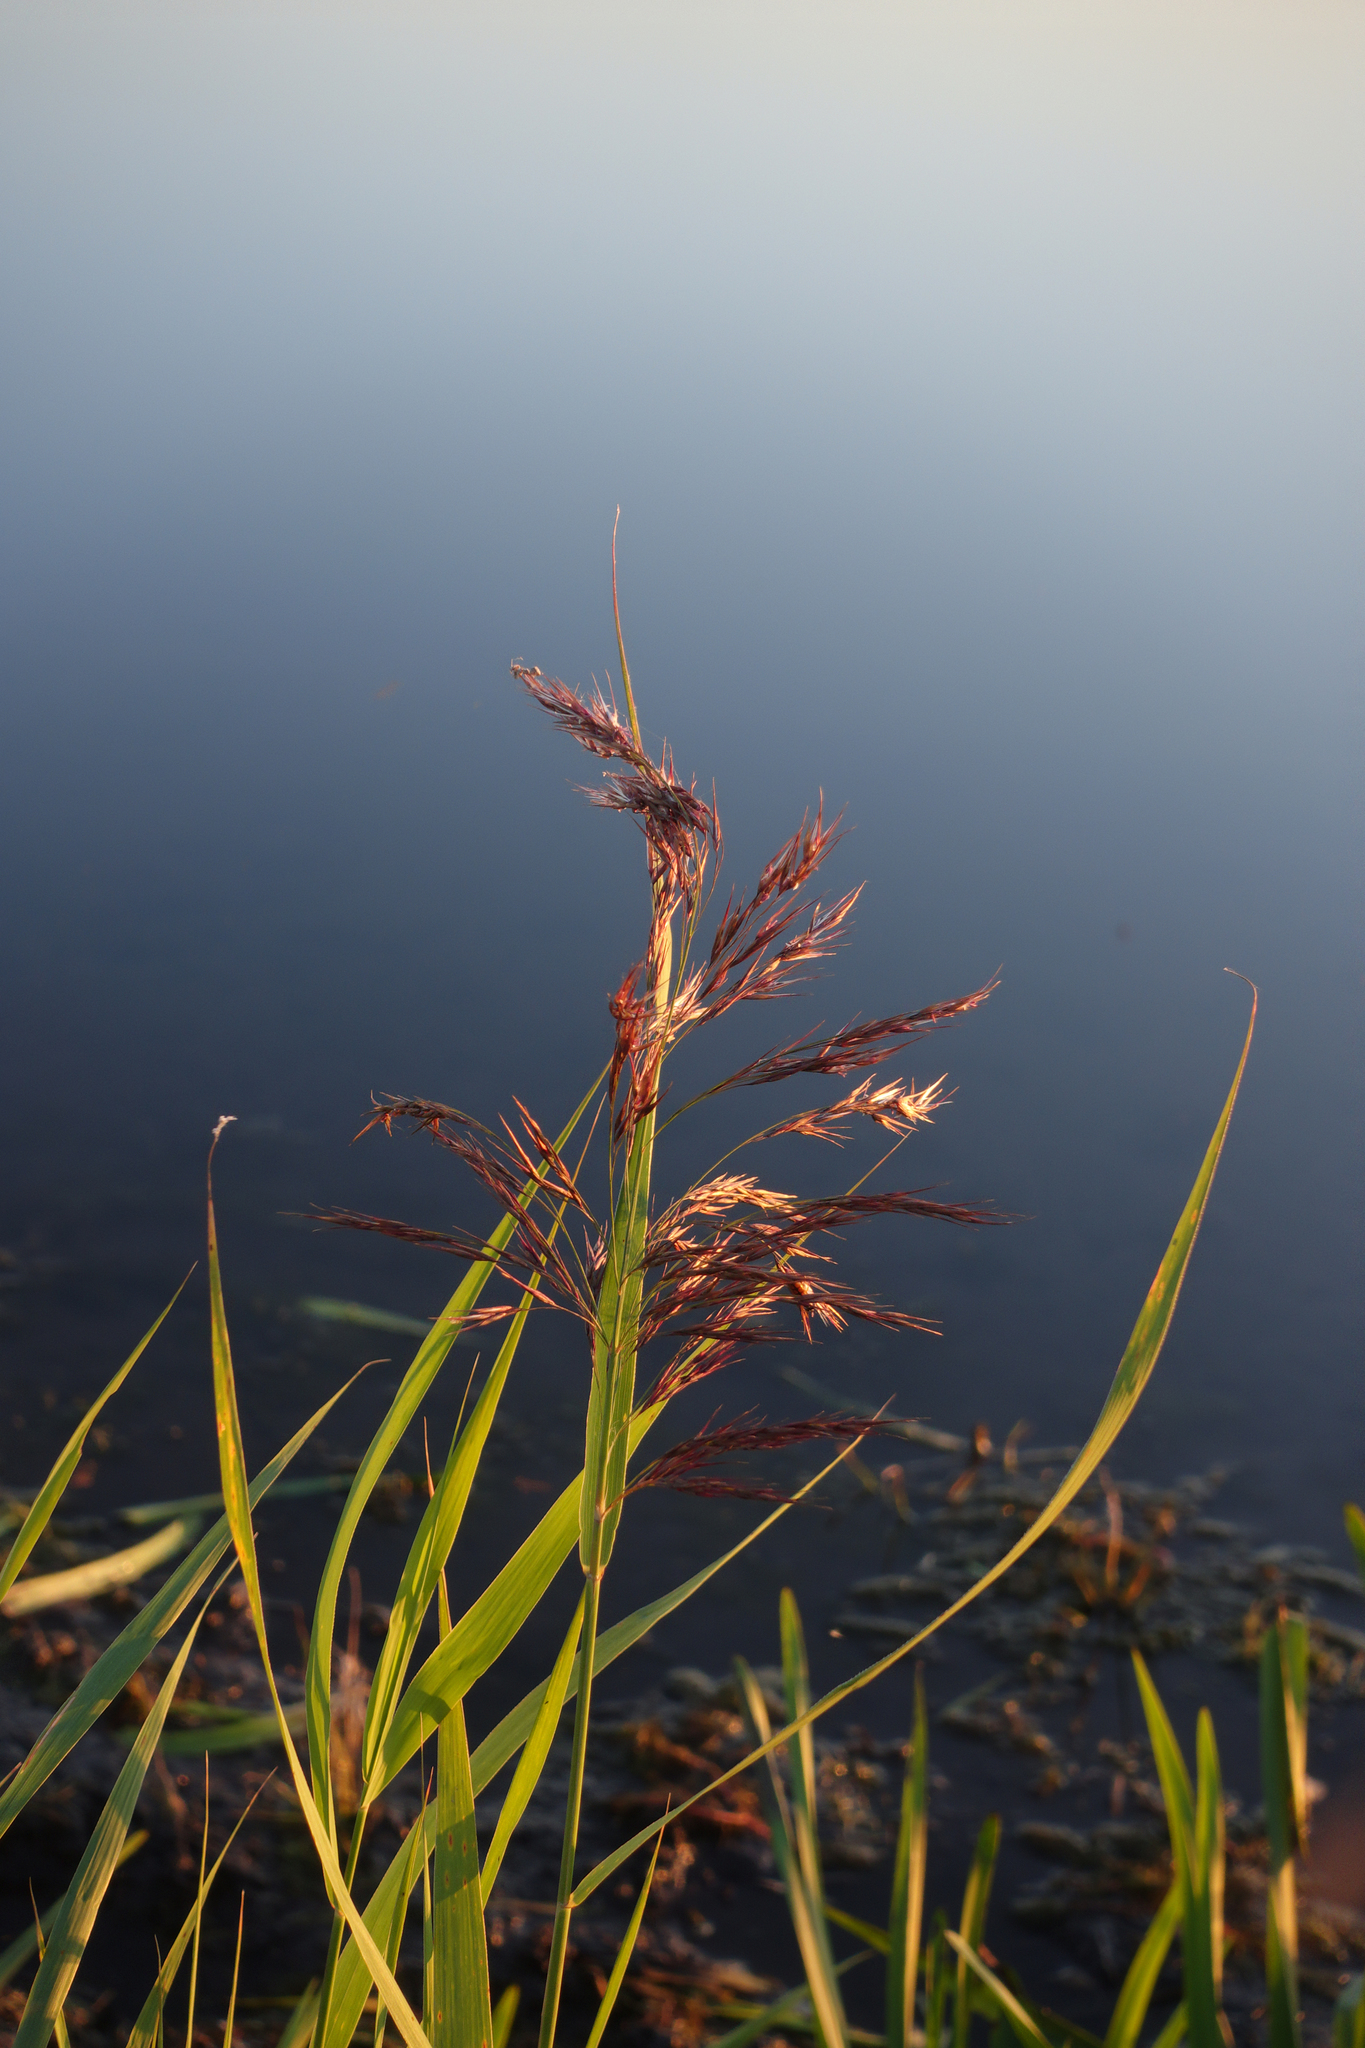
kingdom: Plantae
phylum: Tracheophyta
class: Liliopsida
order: Poales
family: Poaceae
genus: Phragmites
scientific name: Phragmites australis
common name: Common reed
